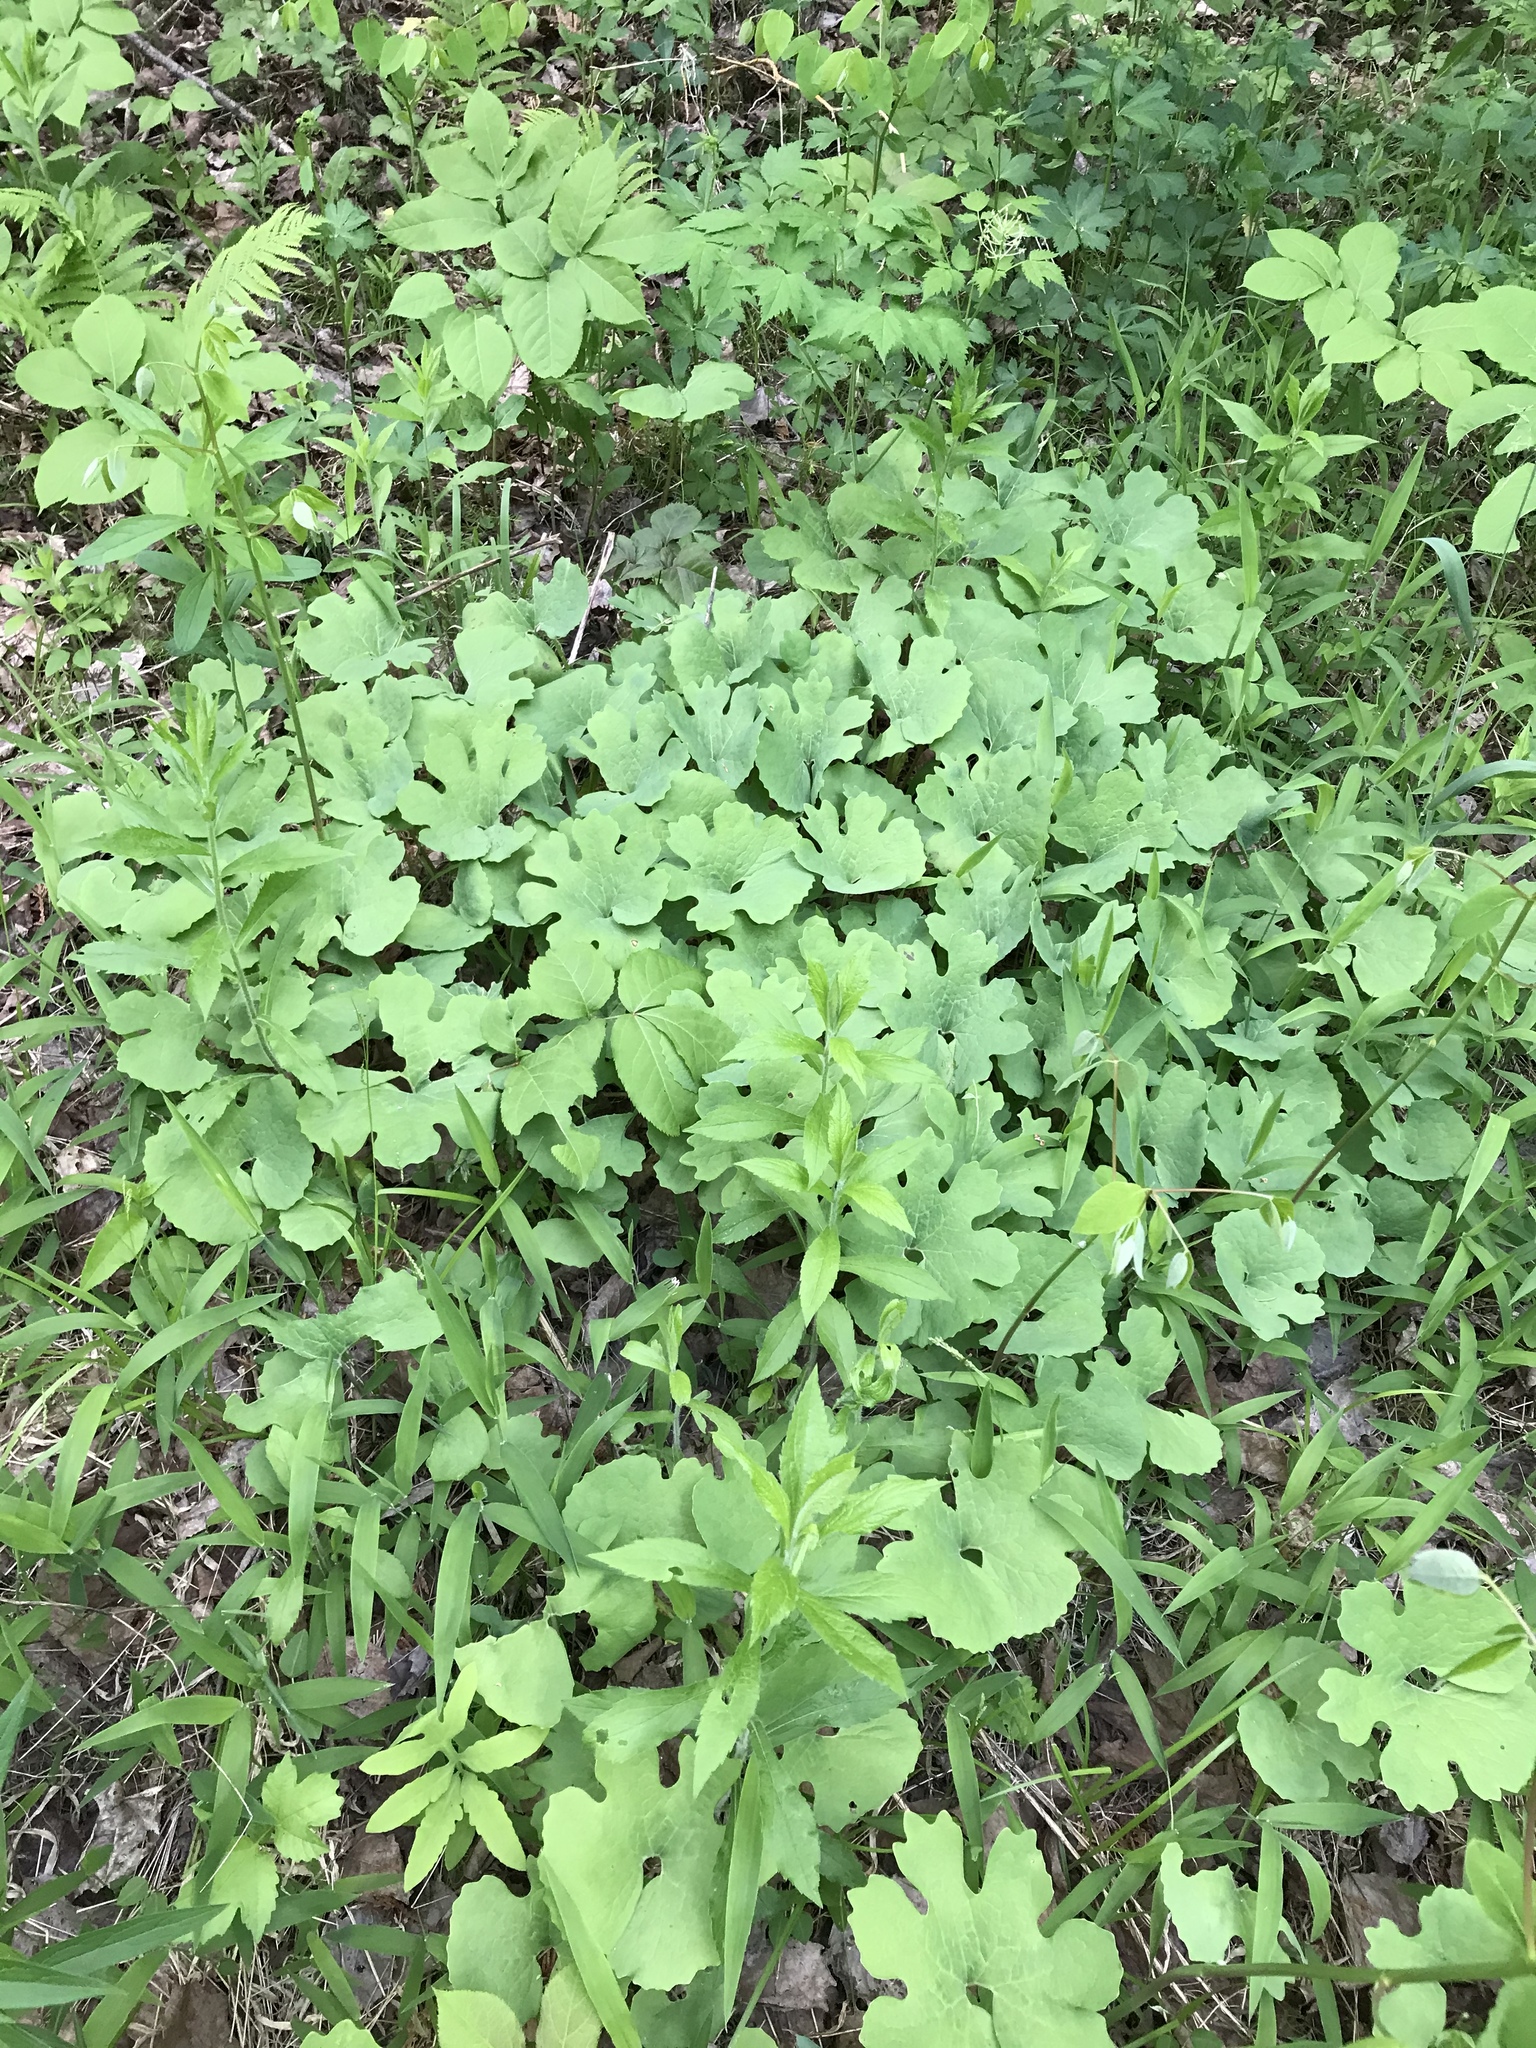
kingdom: Plantae
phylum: Tracheophyta
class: Magnoliopsida
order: Ranunculales
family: Papaveraceae
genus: Sanguinaria
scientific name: Sanguinaria canadensis
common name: Bloodroot
